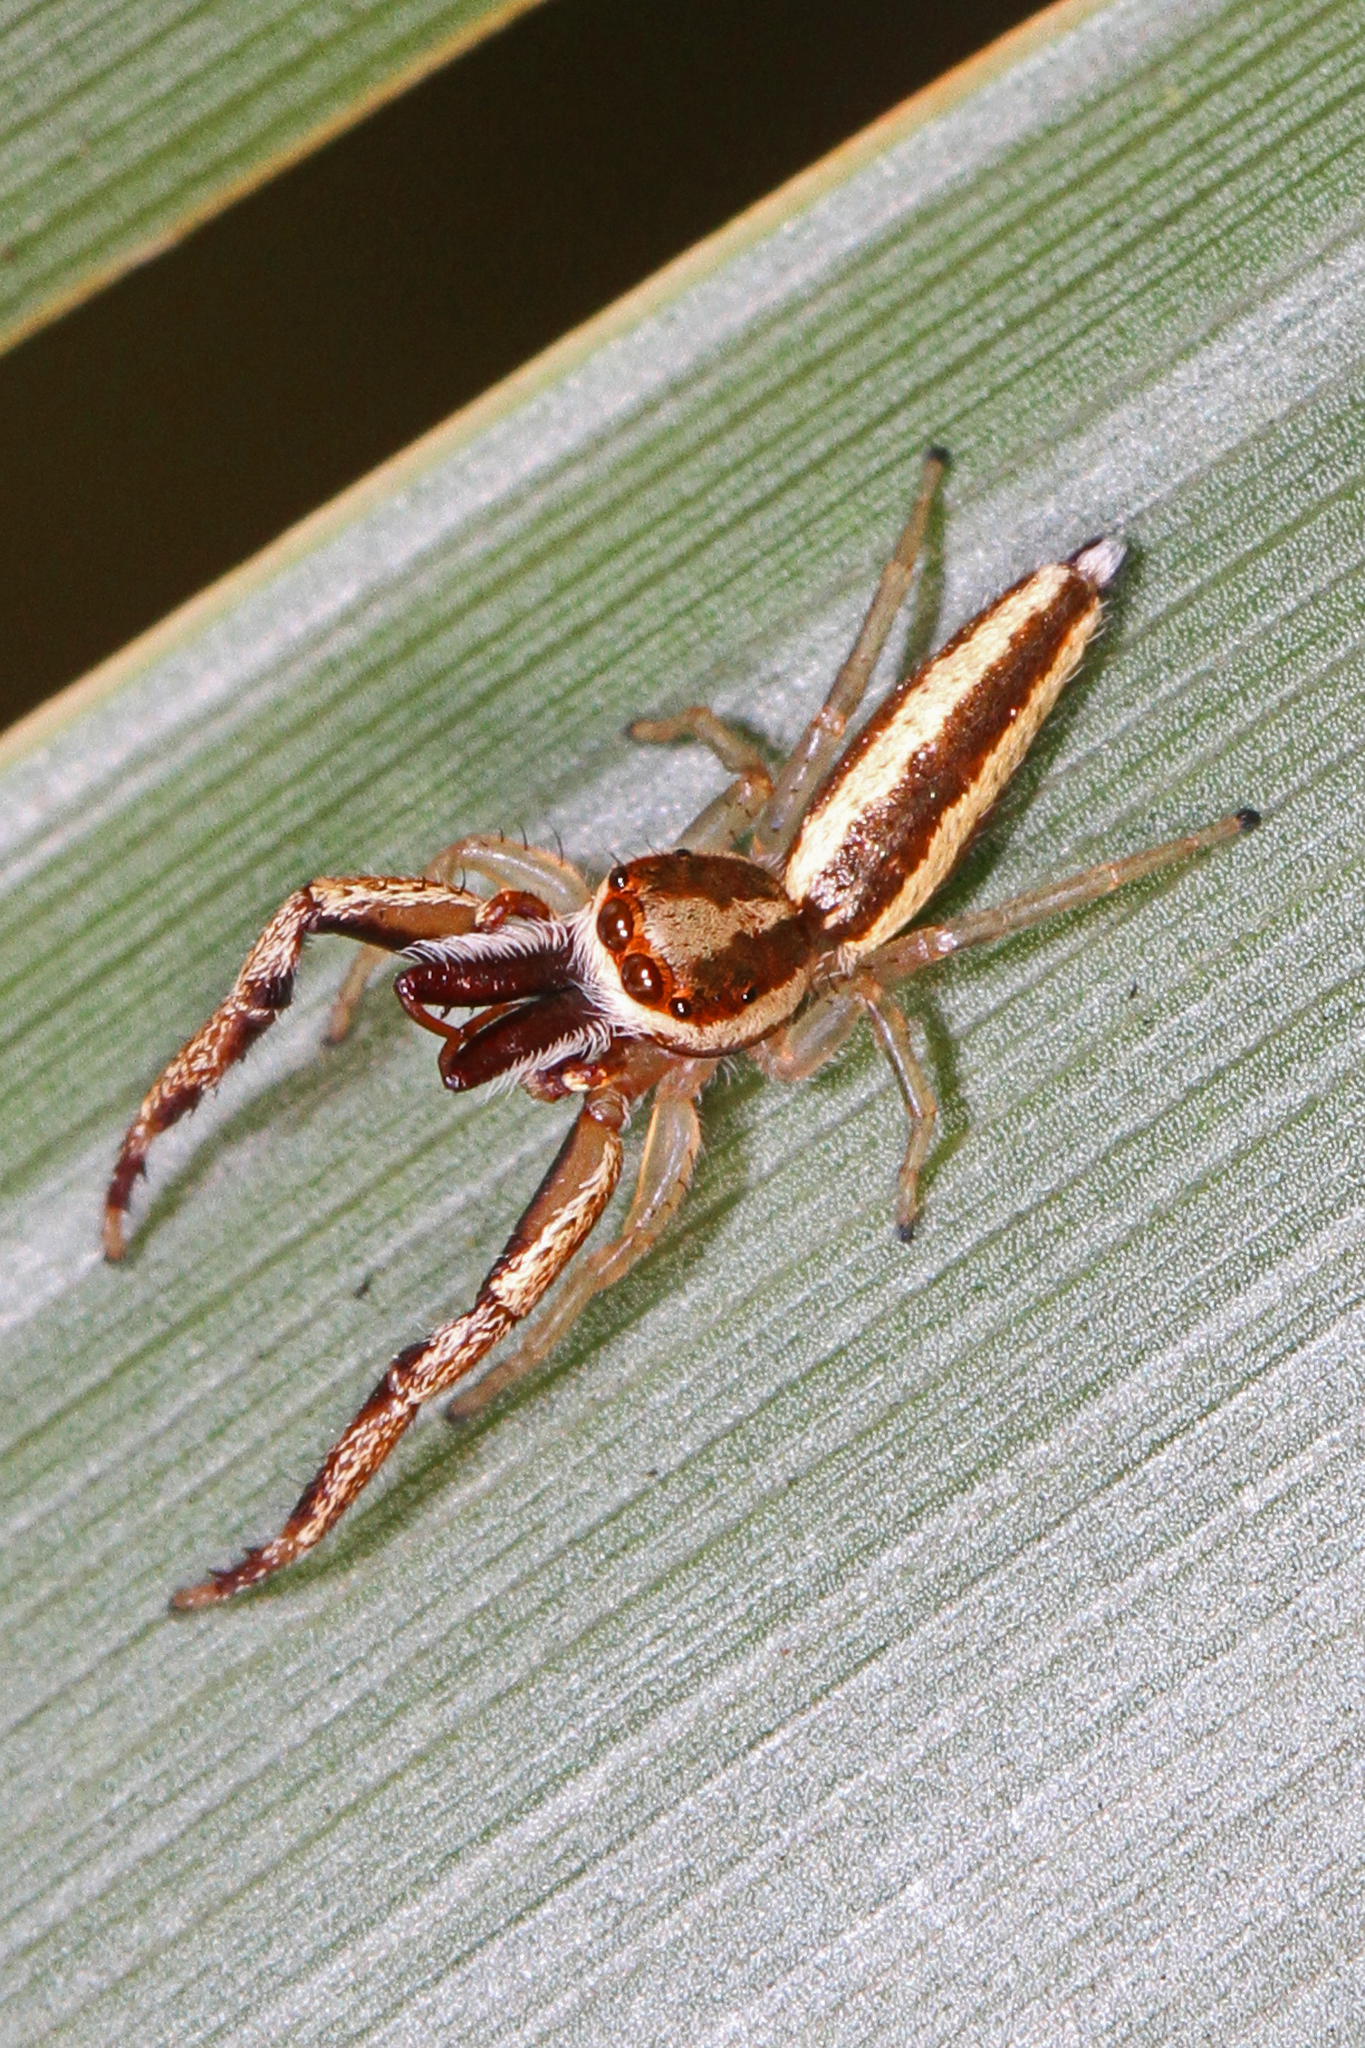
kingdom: Animalia
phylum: Arthropoda
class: Arachnida
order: Araneae
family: Salticidae
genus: Hentzia
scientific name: Hentzia grenada
